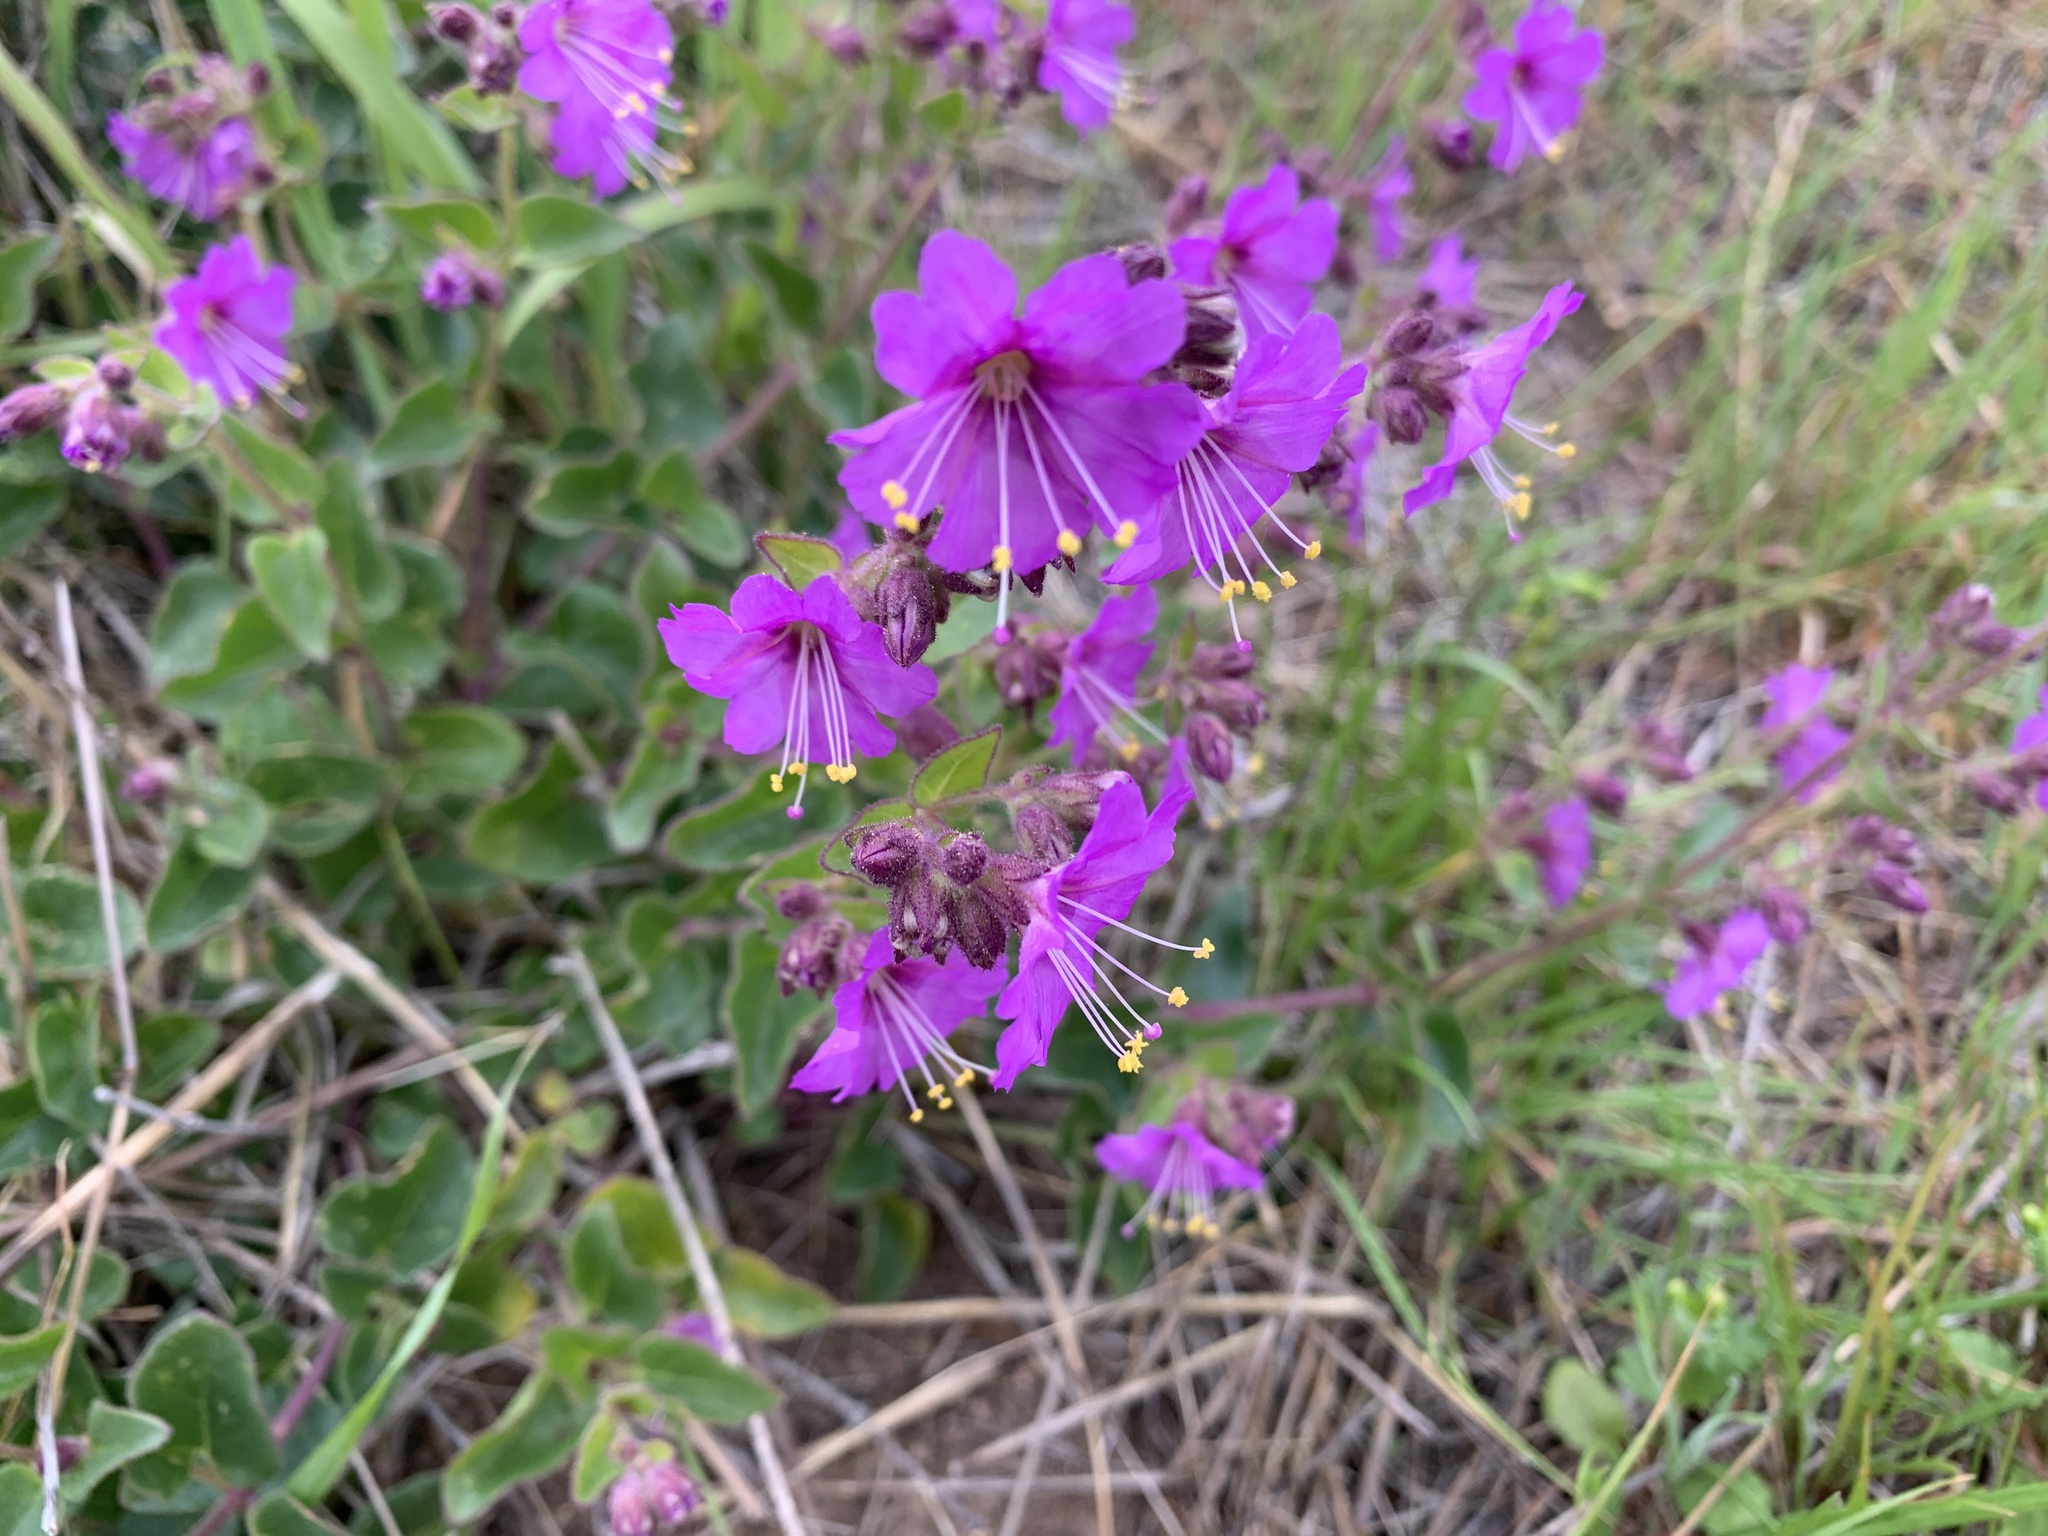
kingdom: Plantae
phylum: Tracheophyta
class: Magnoliopsida
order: Caryophyllales
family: Nyctaginaceae
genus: Mirabilis
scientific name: Mirabilis laevis
